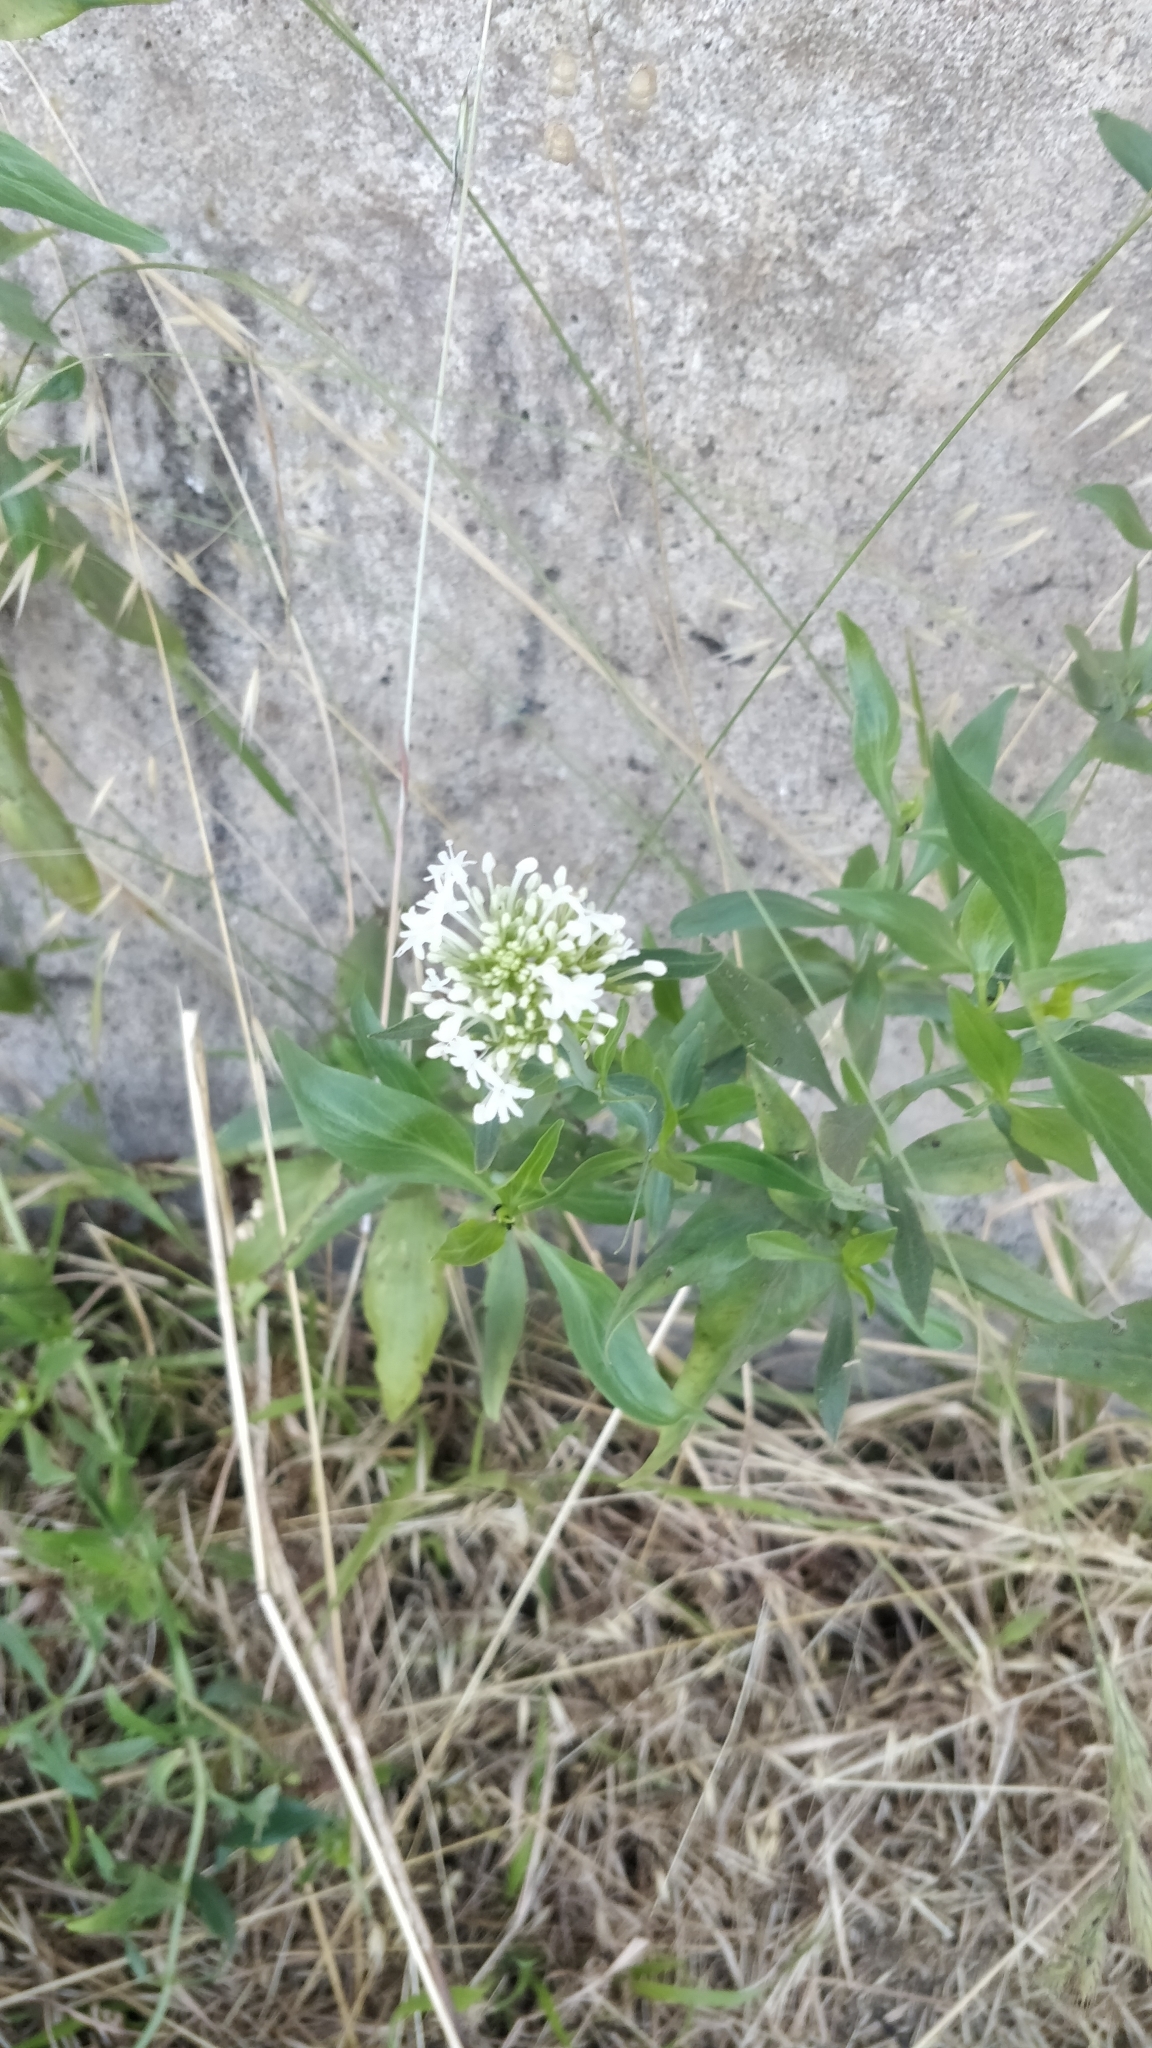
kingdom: Plantae
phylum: Tracheophyta
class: Magnoliopsida
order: Dipsacales
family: Caprifoliaceae
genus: Centranthus
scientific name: Centranthus ruber
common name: Red valerian
